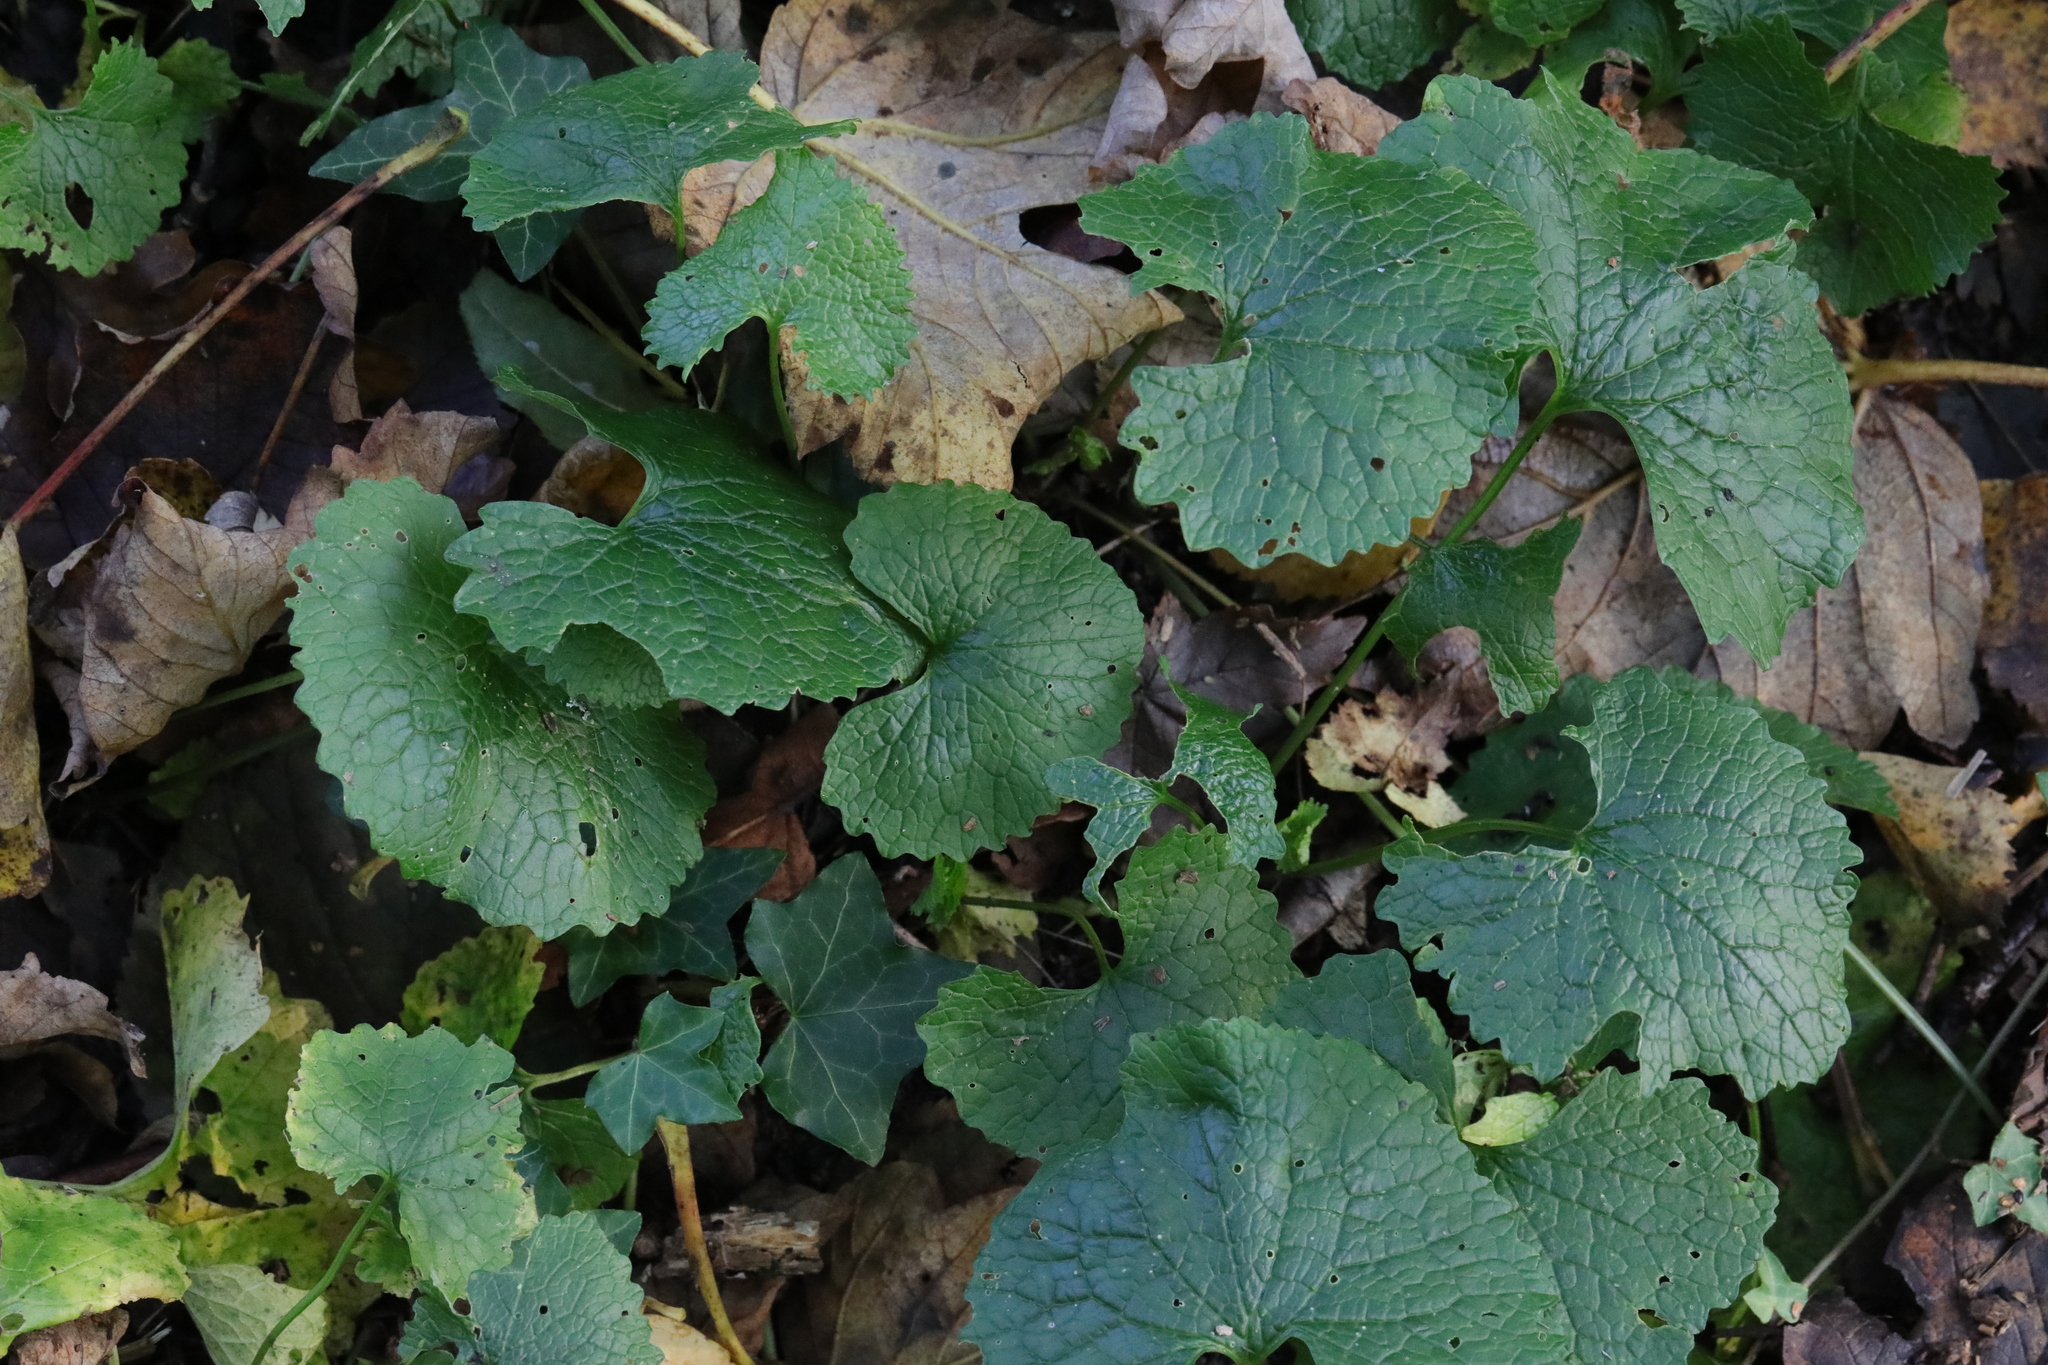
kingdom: Plantae
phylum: Tracheophyta
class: Magnoliopsida
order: Brassicales
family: Brassicaceae
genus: Alliaria
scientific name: Alliaria petiolata
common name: Garlic mustard
